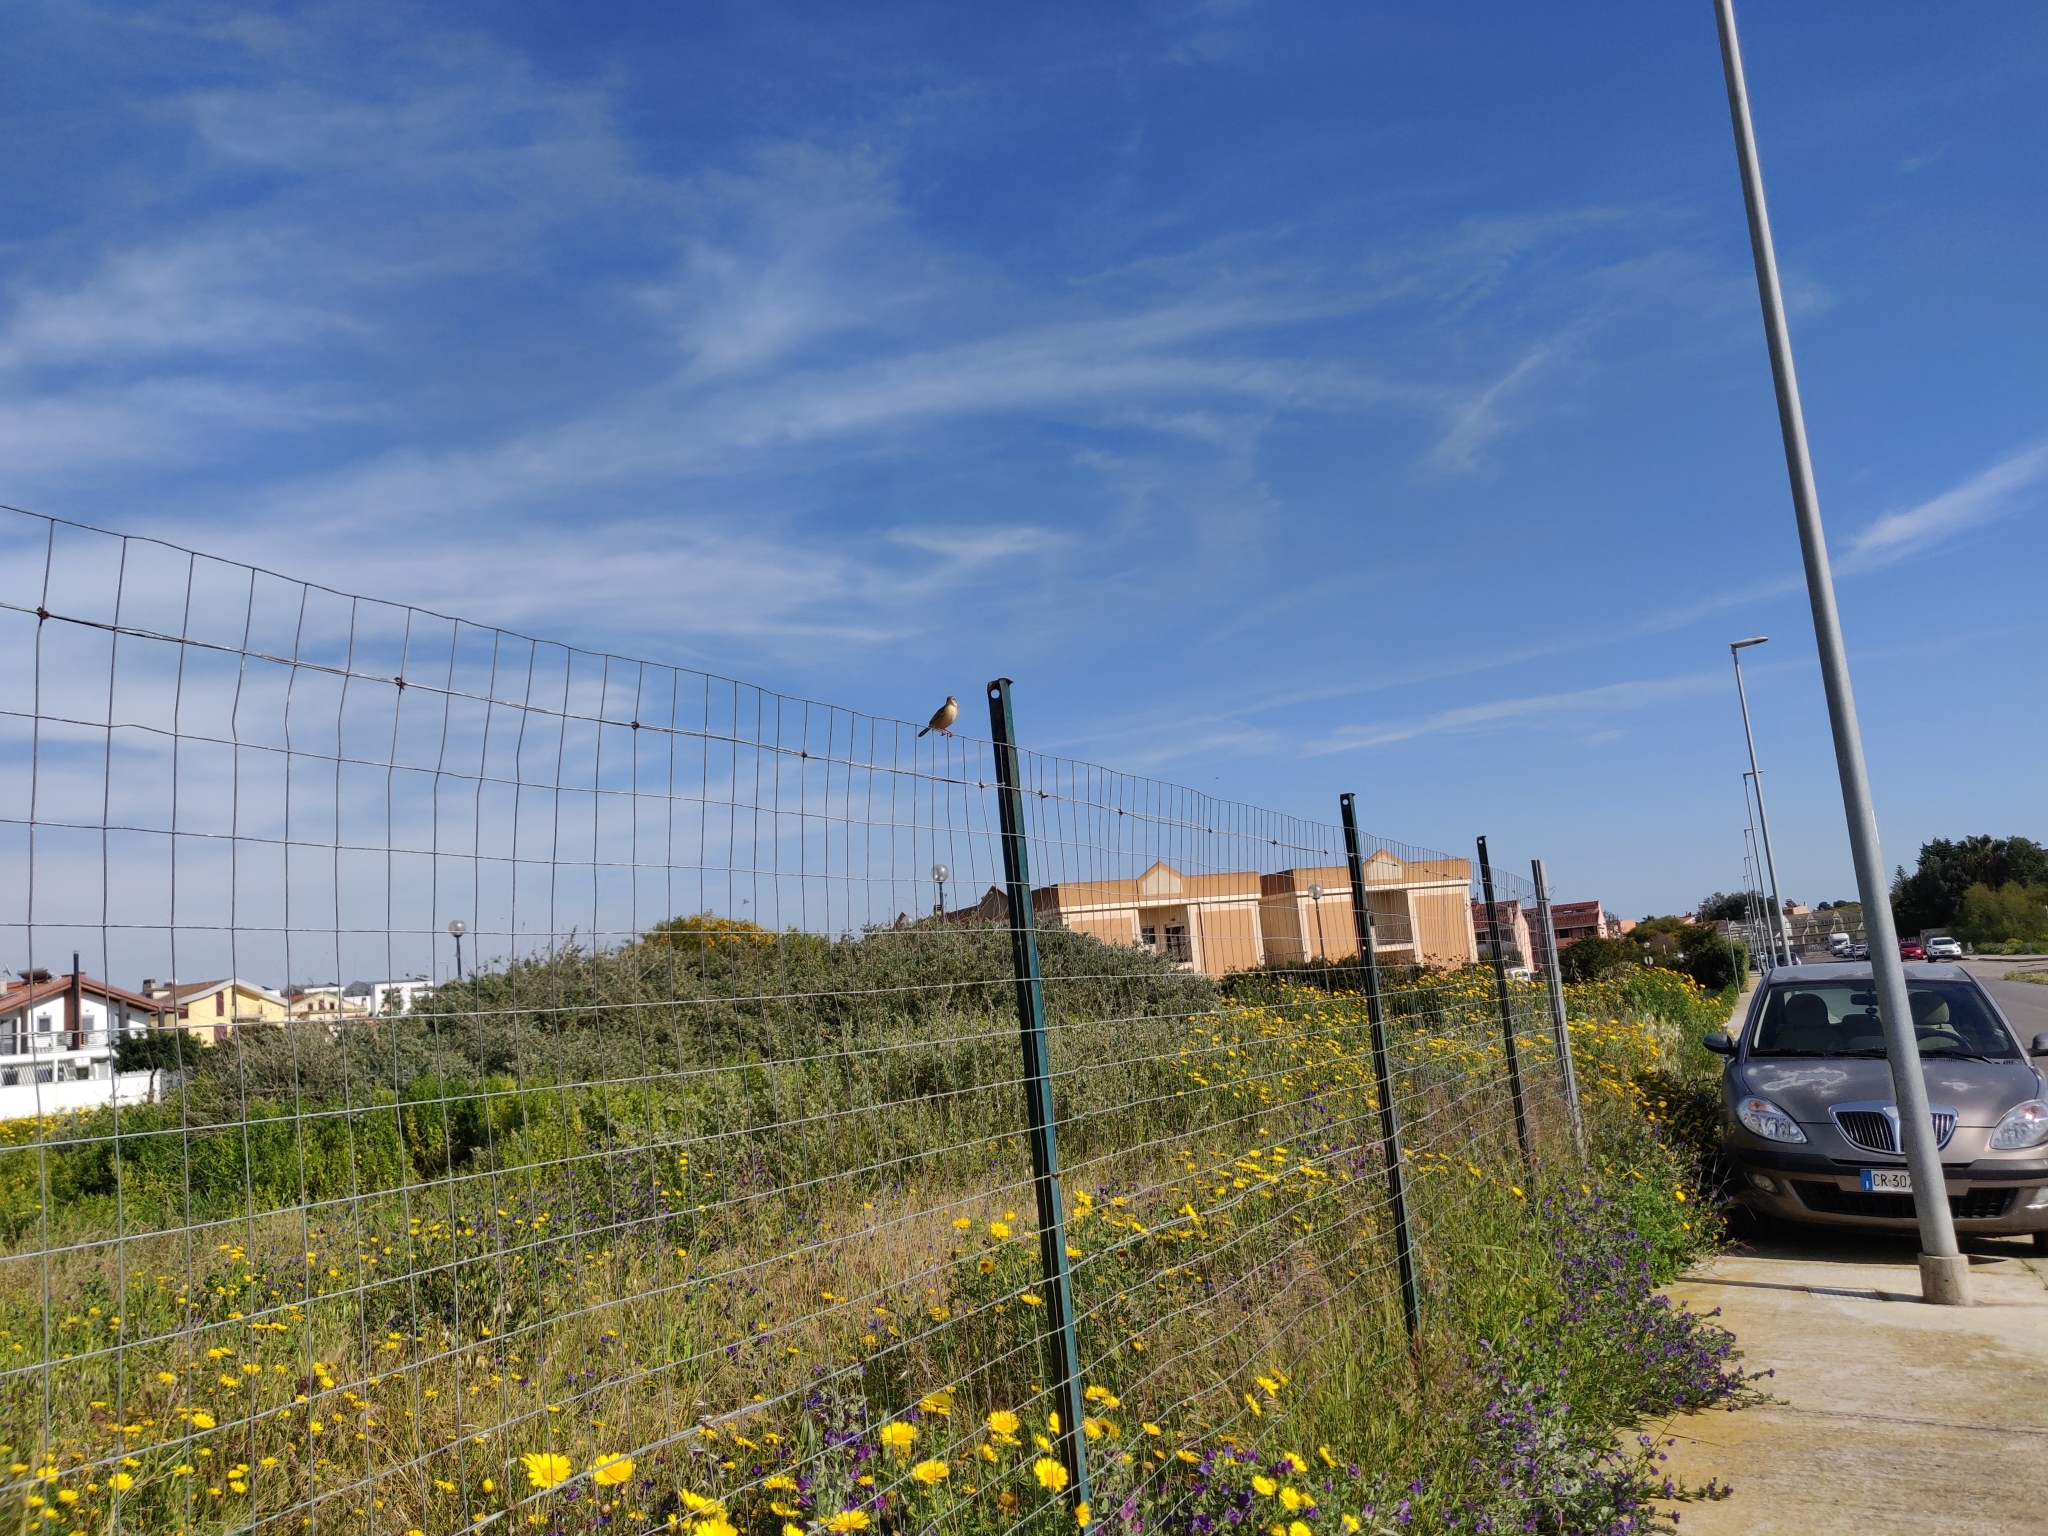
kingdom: Animalia
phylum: Chordata
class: Aves
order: Passeriformes
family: Cisticolidae
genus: Cisticola
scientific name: Cisticola juncidis
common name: Zitting cisticola
